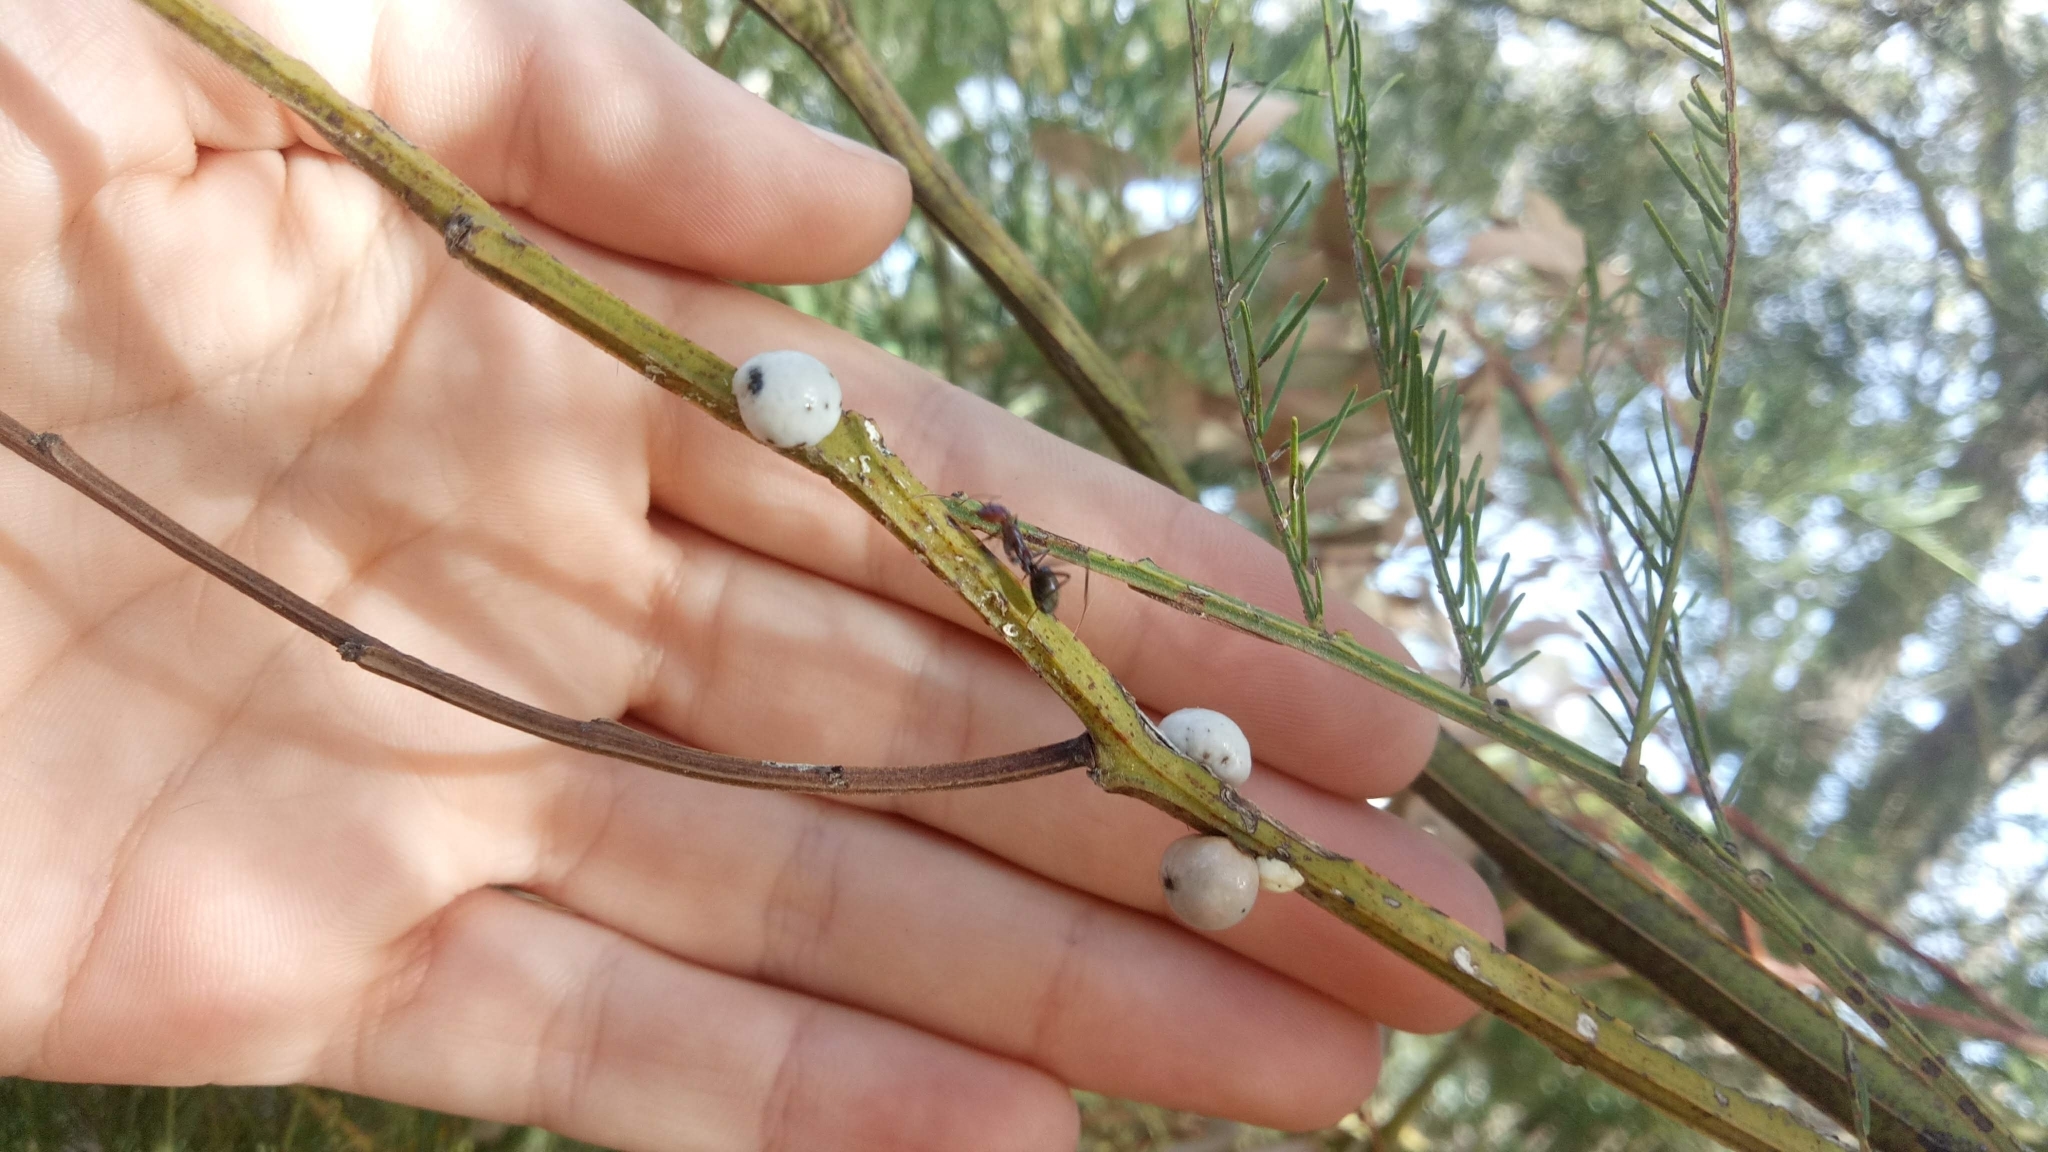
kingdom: Animalia
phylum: Arthropoda
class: Insecta
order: Hemiptera
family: Coccidae
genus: Cryptes
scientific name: Cryptes baccatus
